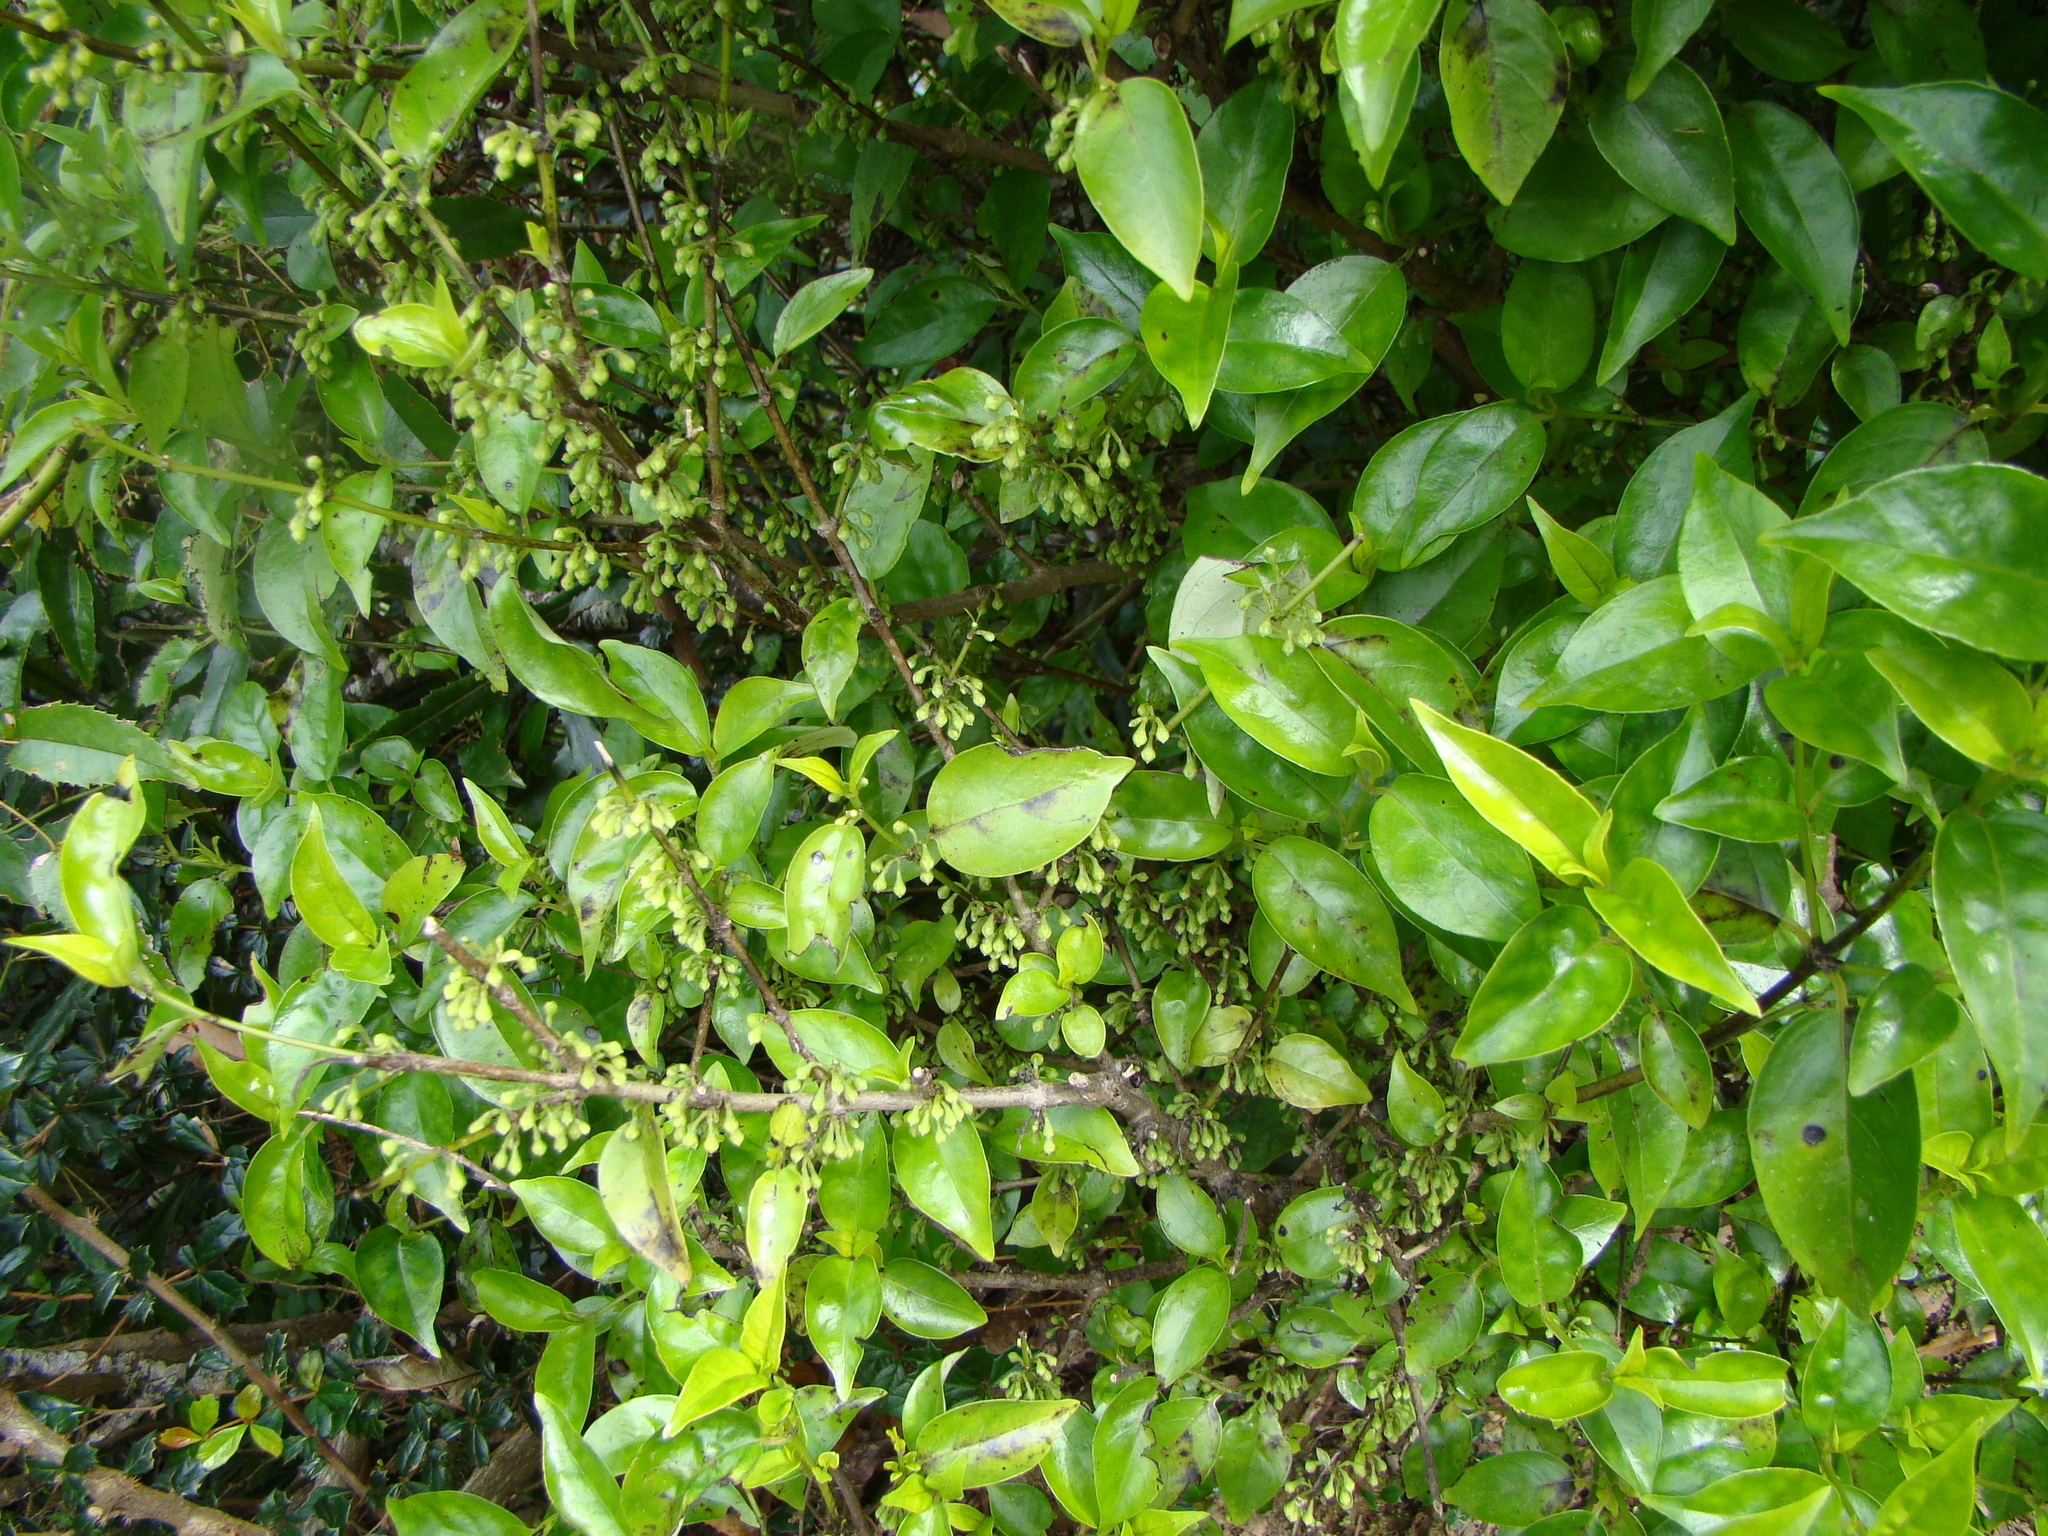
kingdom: Plantae
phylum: Tracheophyta
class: Magnoliopsida
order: Gentianales
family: Loganiaceae
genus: Geniostoma
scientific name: Geniostoma ligustrifolium
